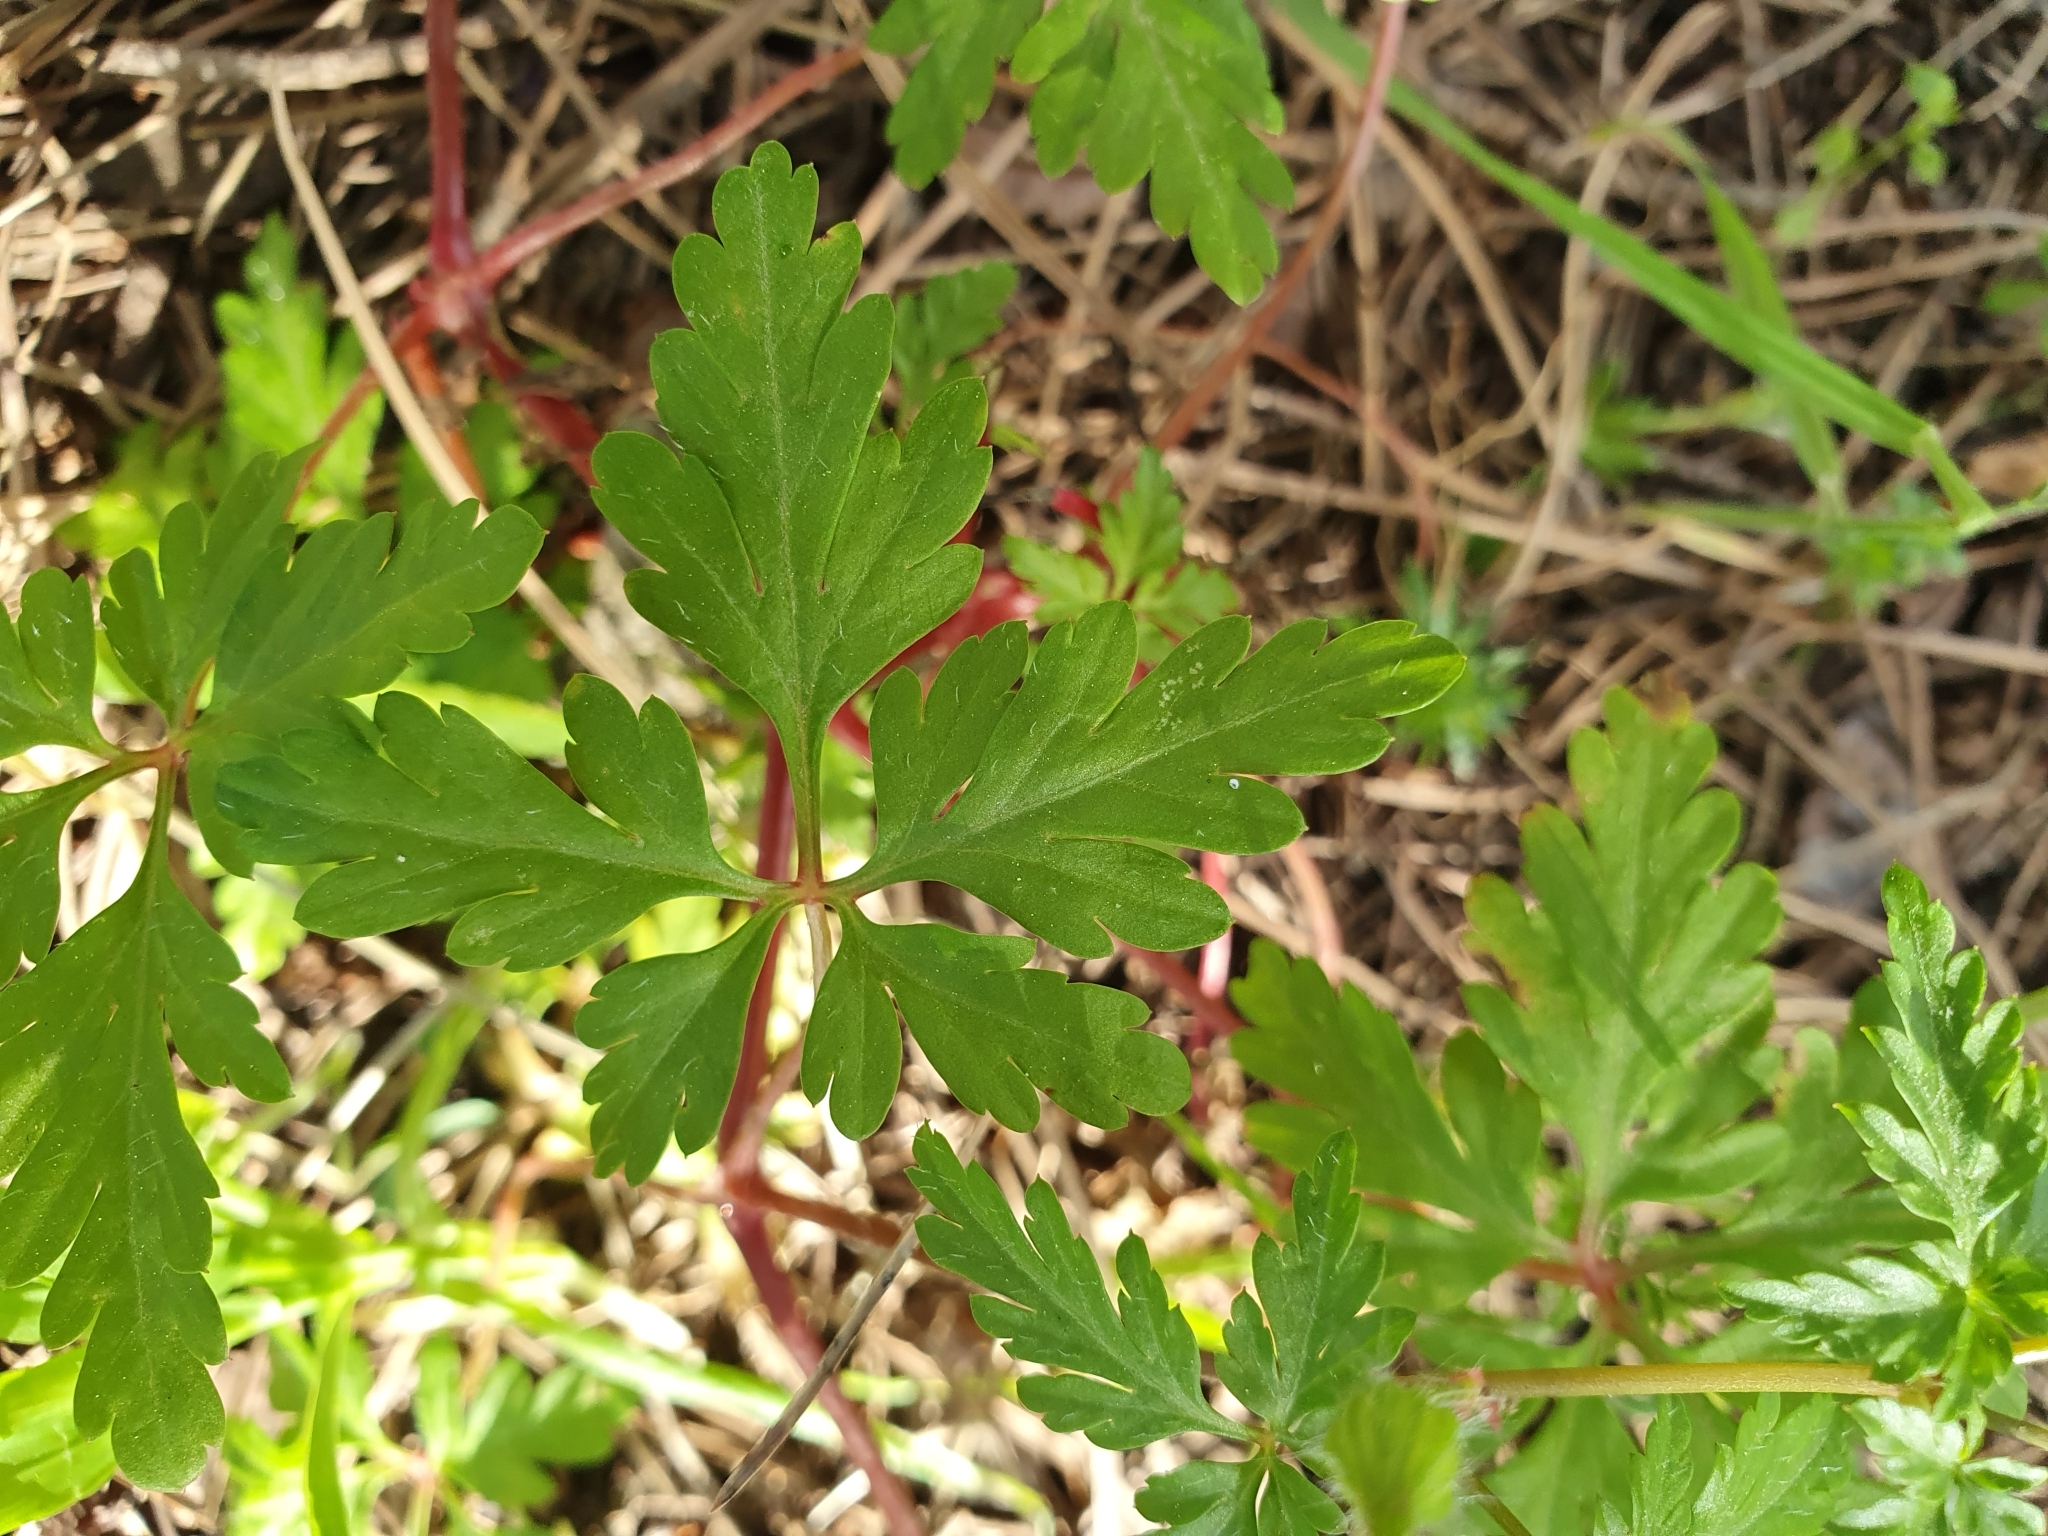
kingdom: Plantae
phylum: Tracheophyta
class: Magnoliopsida
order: Geraniales
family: Geraniaceae
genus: Geranium
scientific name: Geranium purpureum
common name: Little-robin
